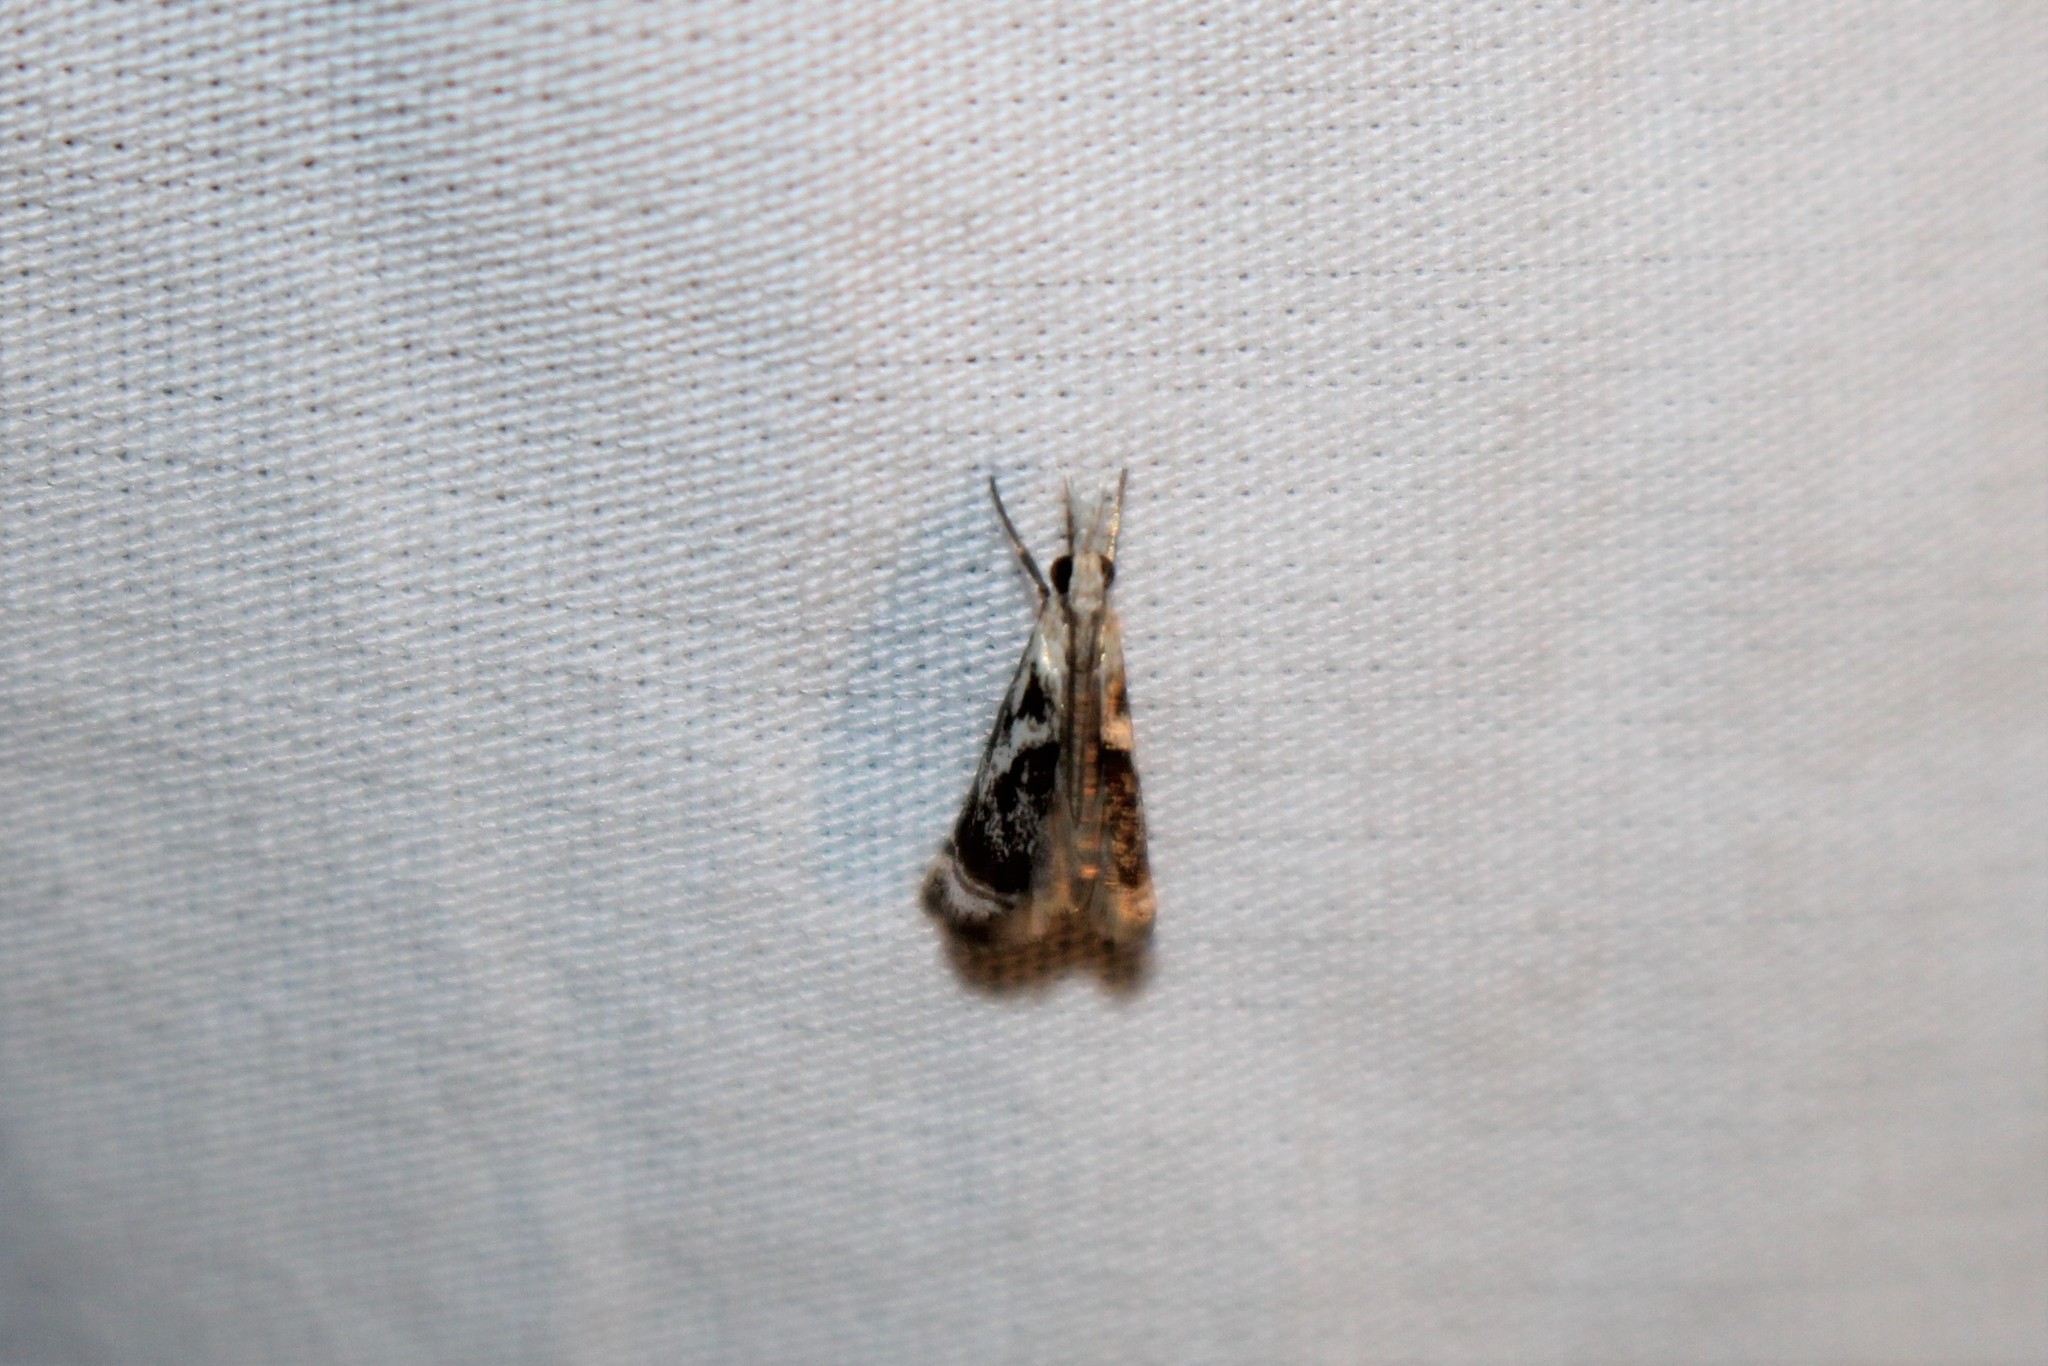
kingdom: Animalia
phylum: Arthropoda
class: Insecta
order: Lepidoptera
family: Crambidae
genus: Microcrambus
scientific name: Microcrambus elegans
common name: Elegant grass-veneer
